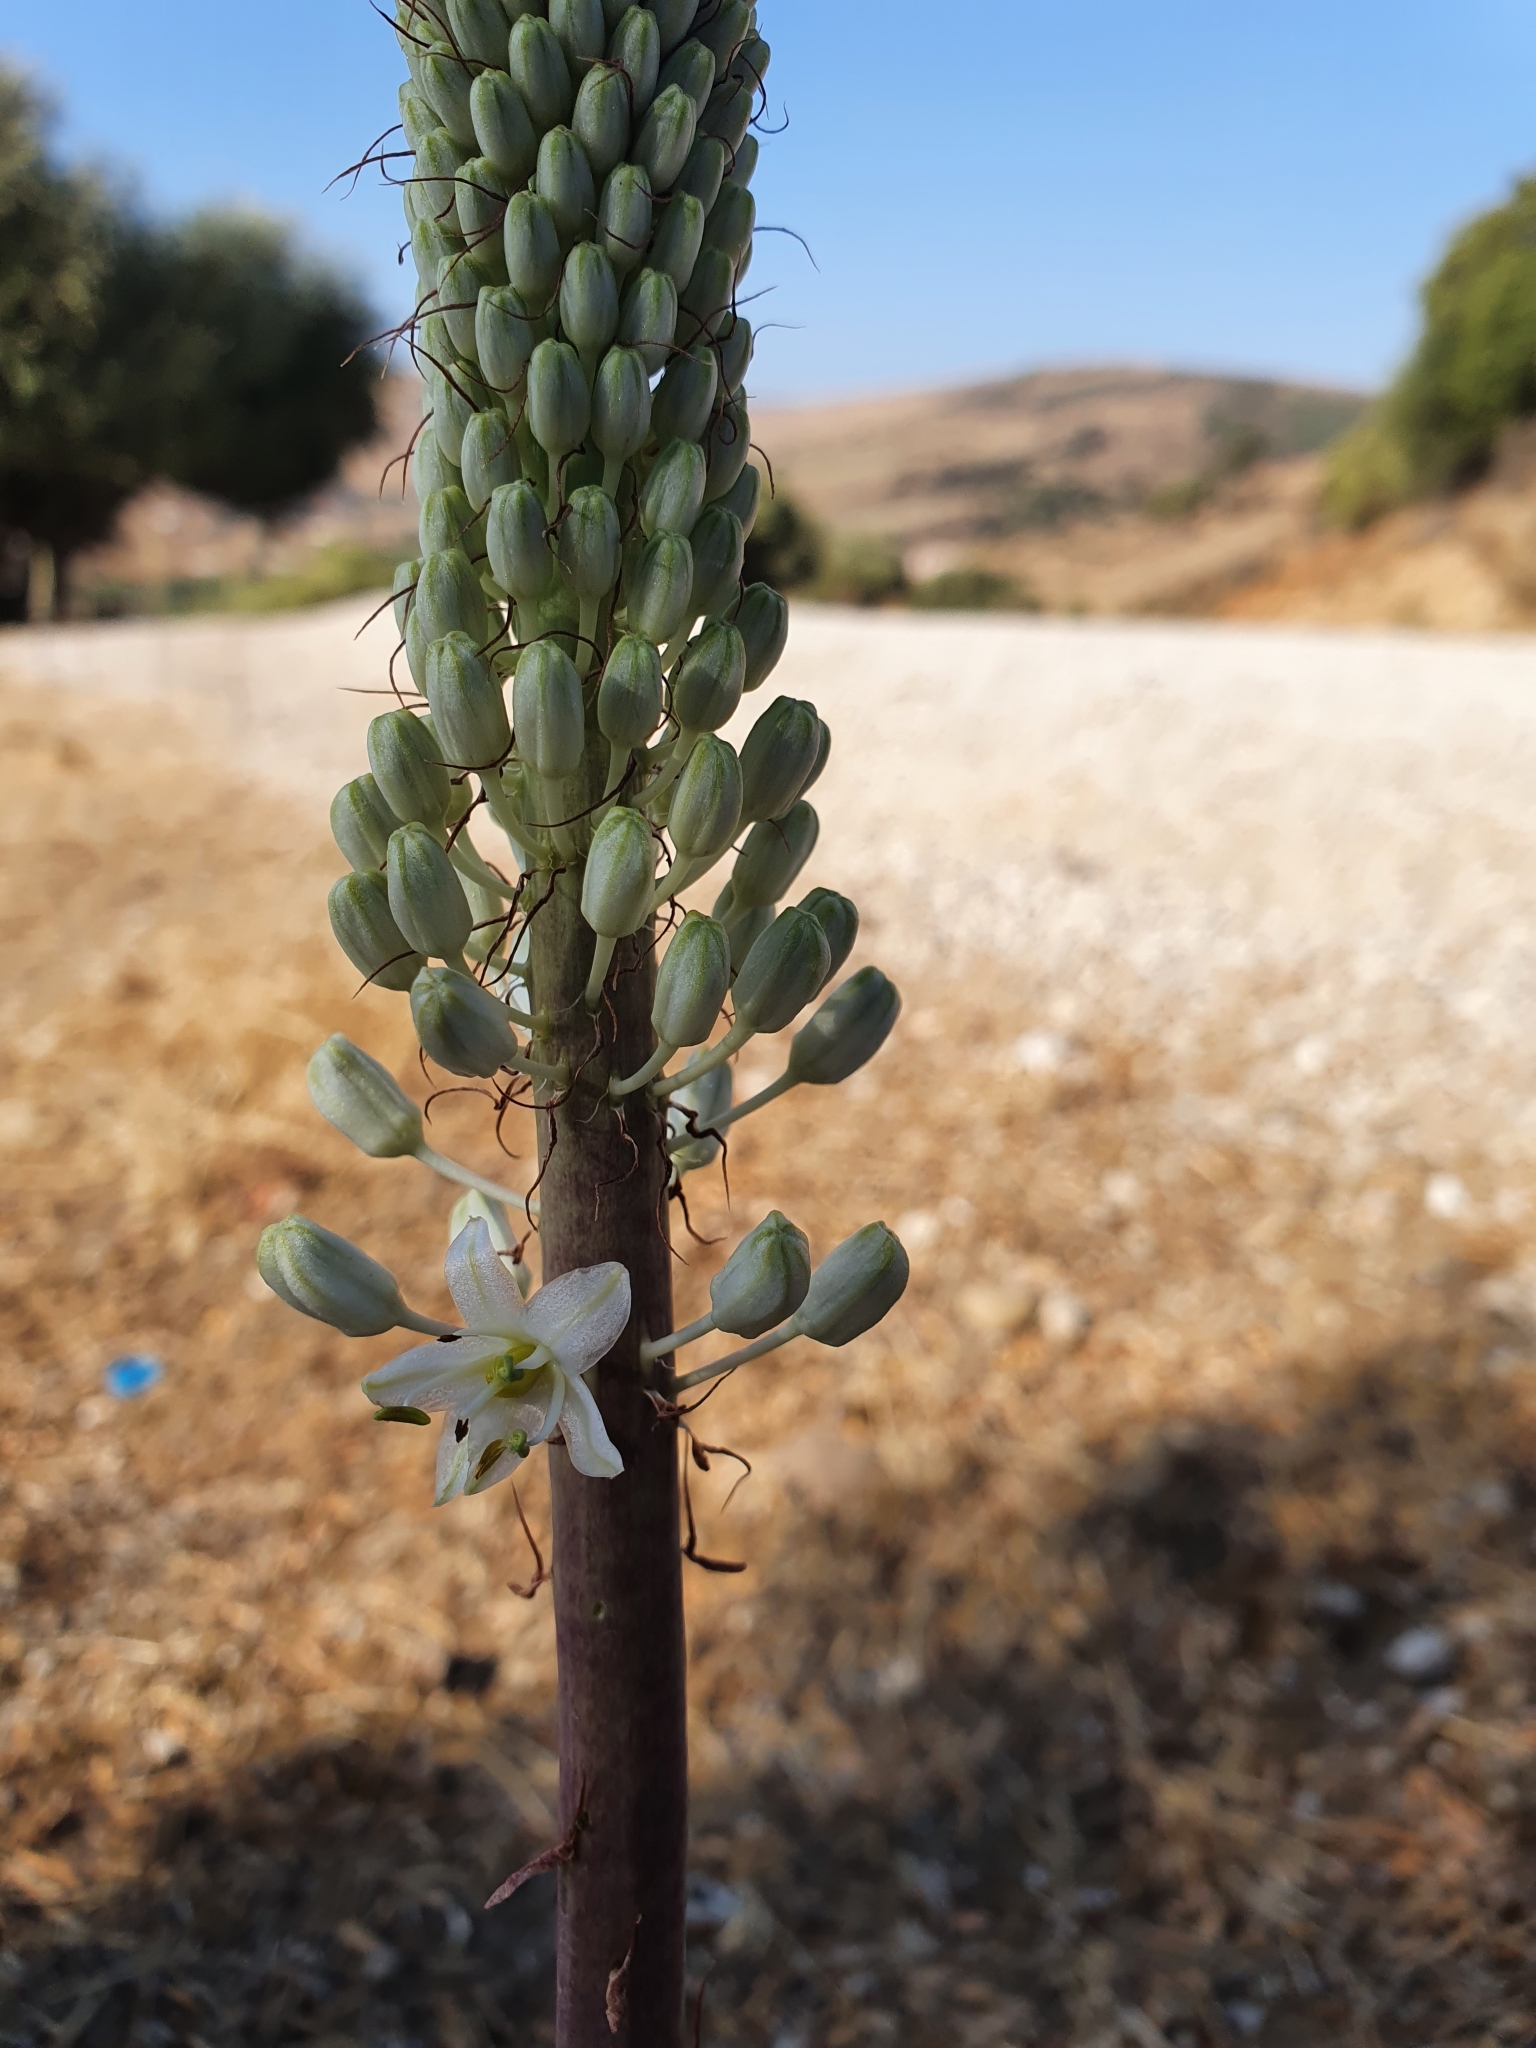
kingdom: Plantae
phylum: Tracheophyta
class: Liliopsida
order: Asparagales
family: Asparagaceae
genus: Drimia
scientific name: Drimia numidica
